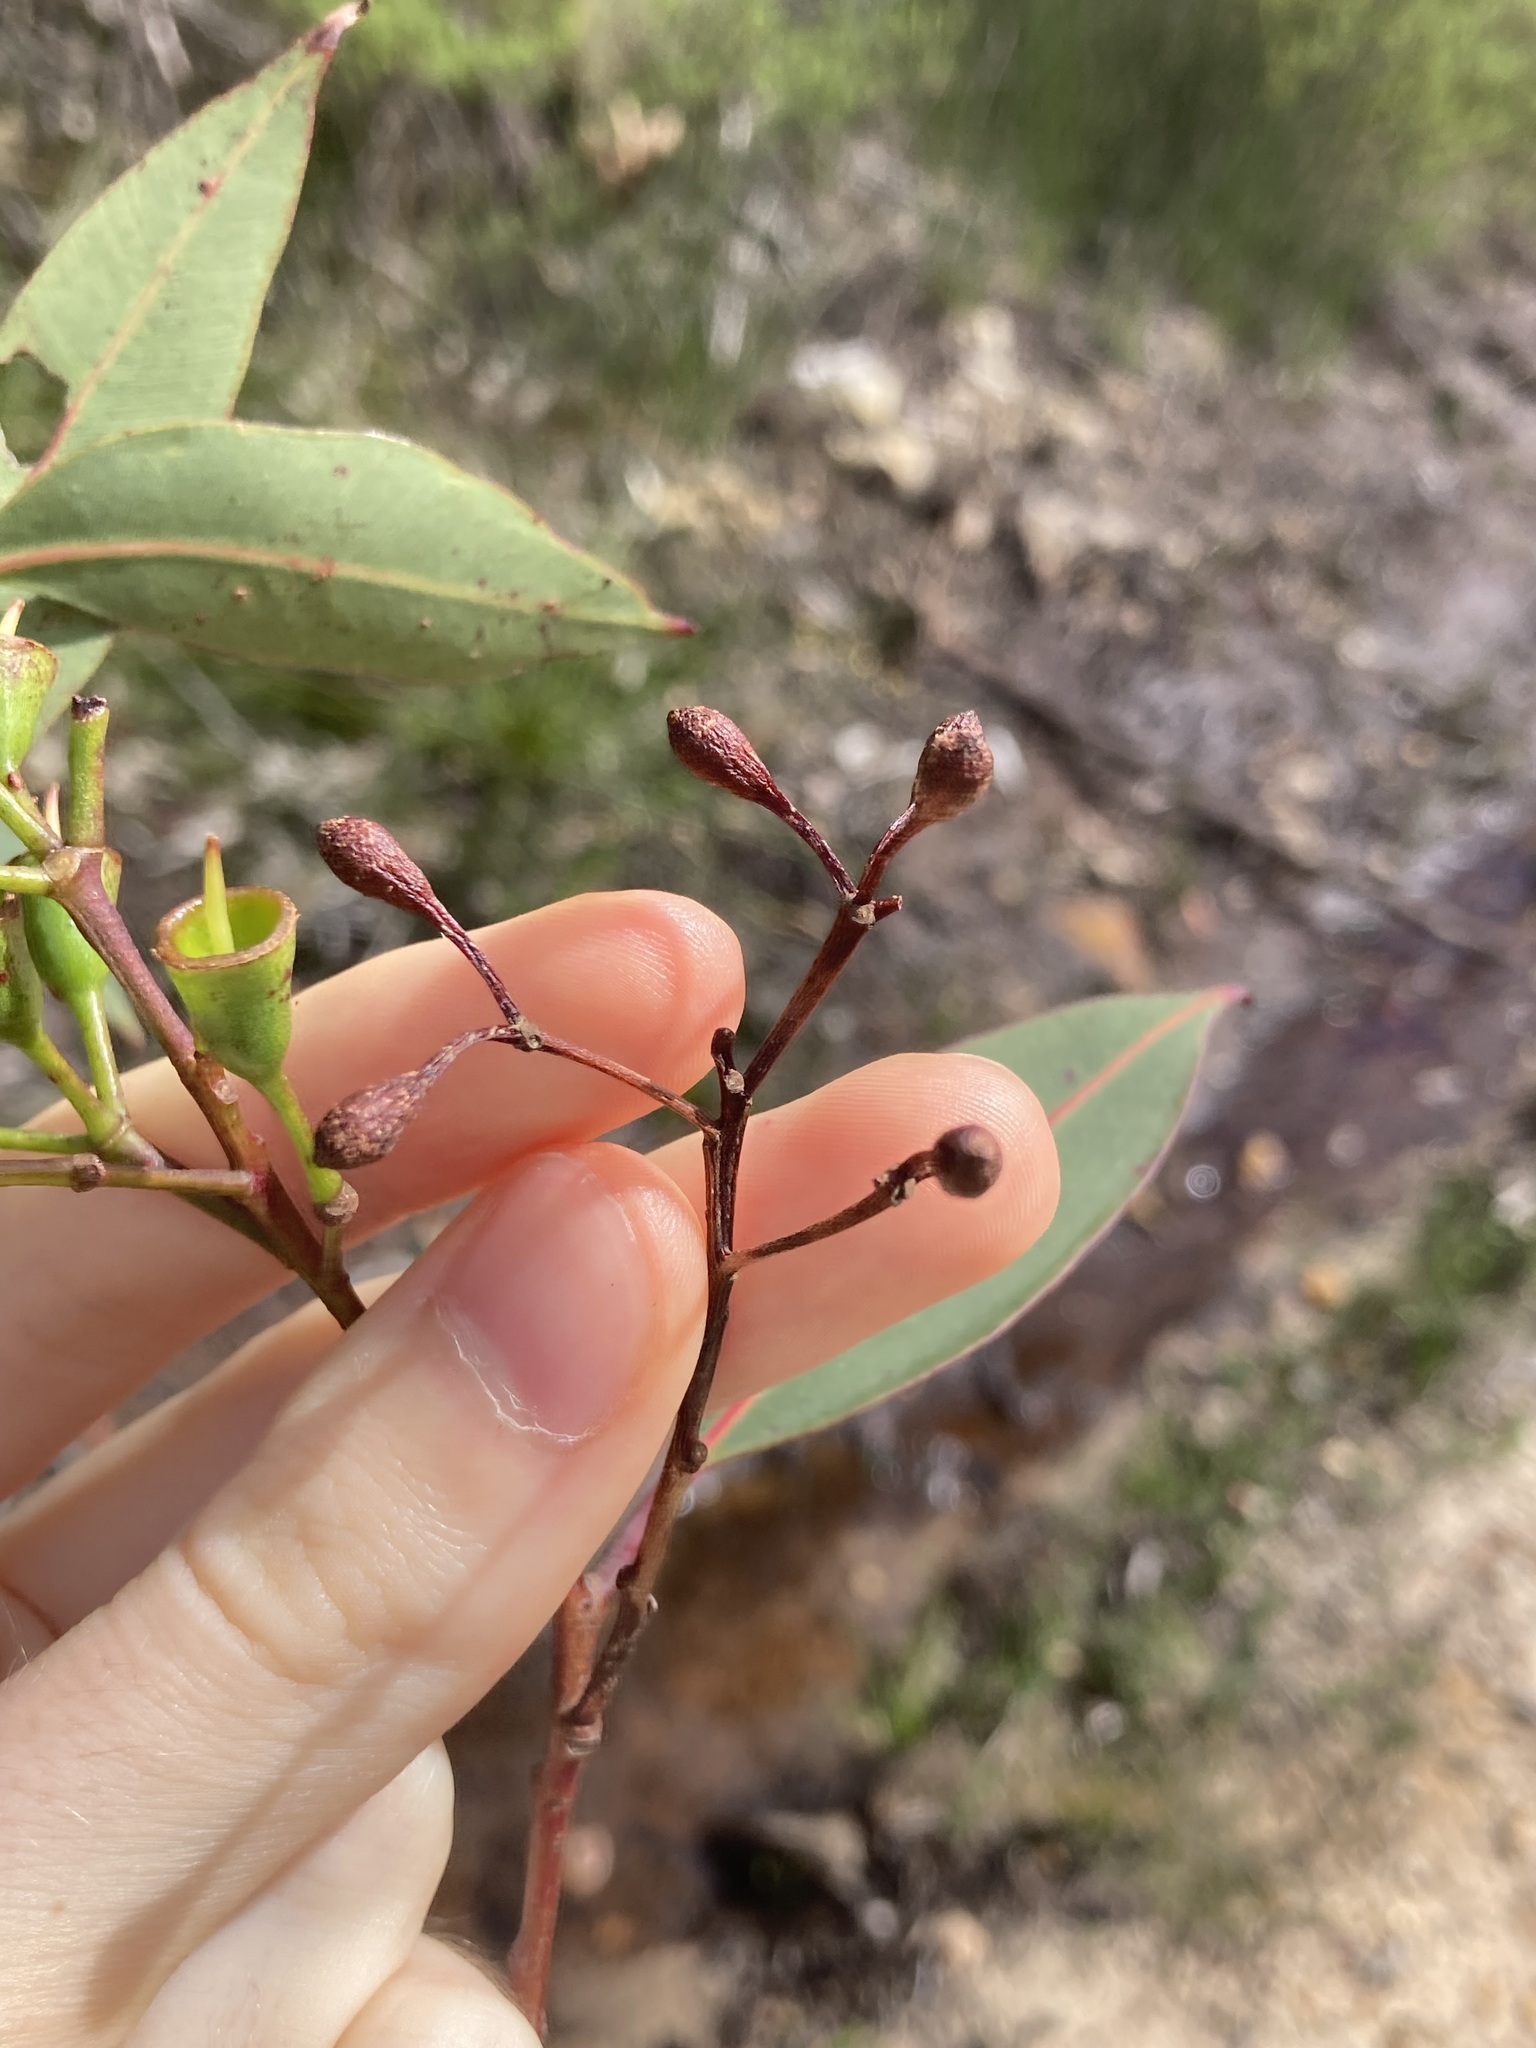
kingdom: Plantae
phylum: Tracheophyta
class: Magnoliopsida
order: Myrtales
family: Myrtaceae
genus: Corymbia
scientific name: Corymbia gummifera
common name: Red bloodwood
